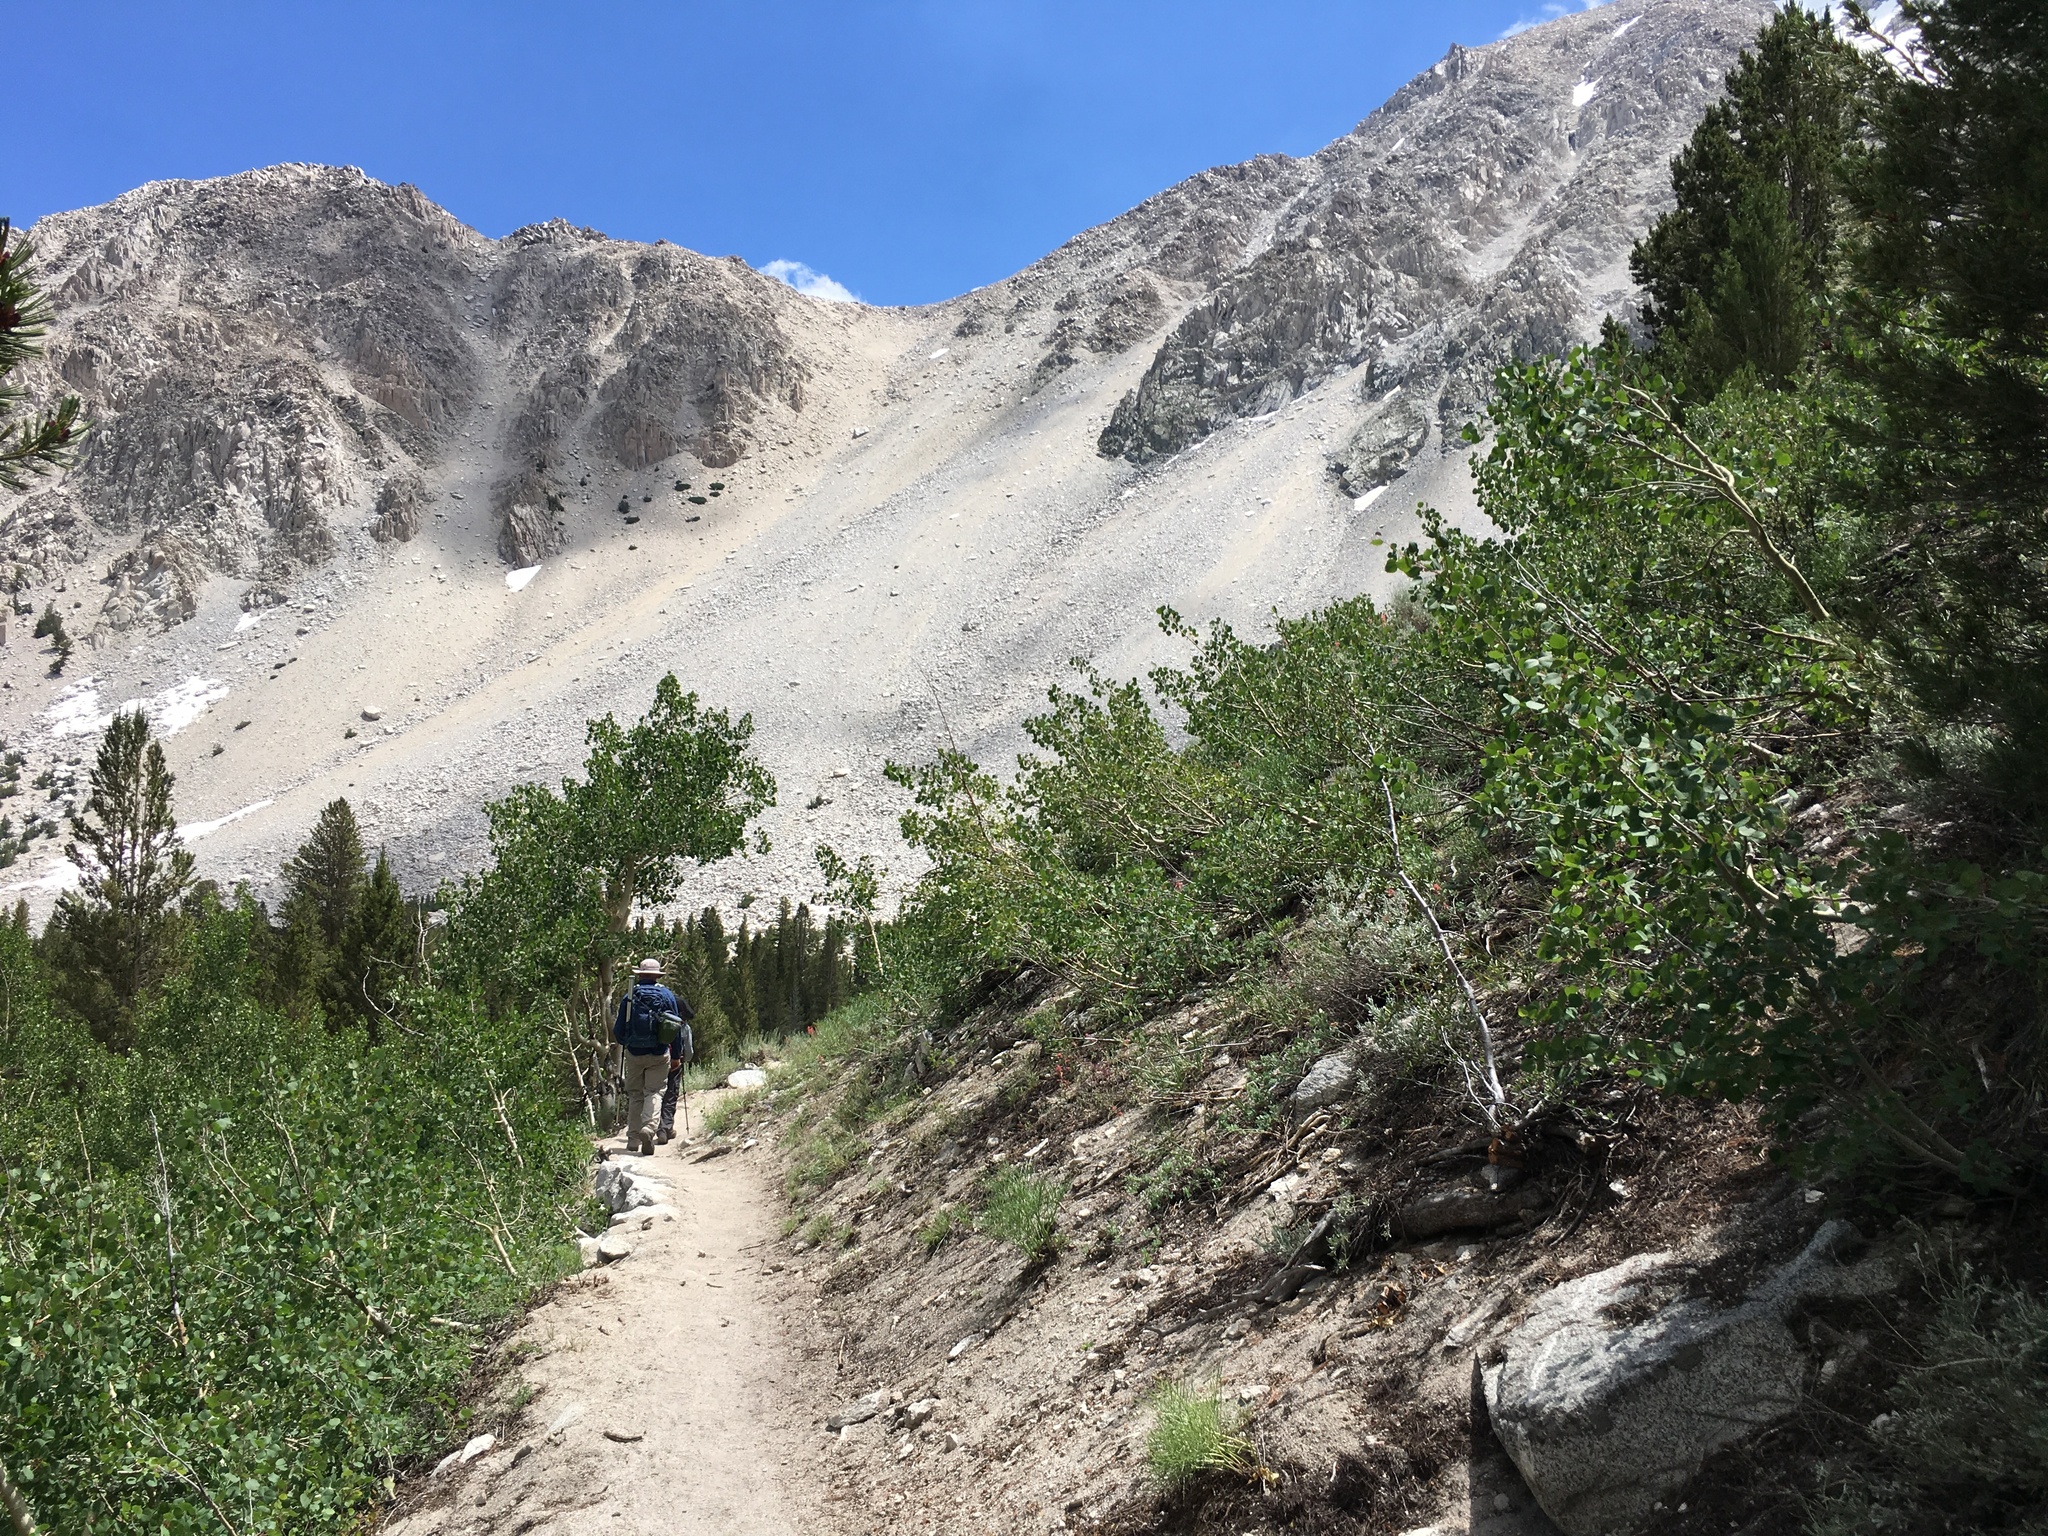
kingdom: Plantae
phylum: Tracheophyta
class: Magnoliopsida
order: Malpighiales
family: Salicaceae
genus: Populus
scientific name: Populus tremuloides
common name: Quaking aspen
